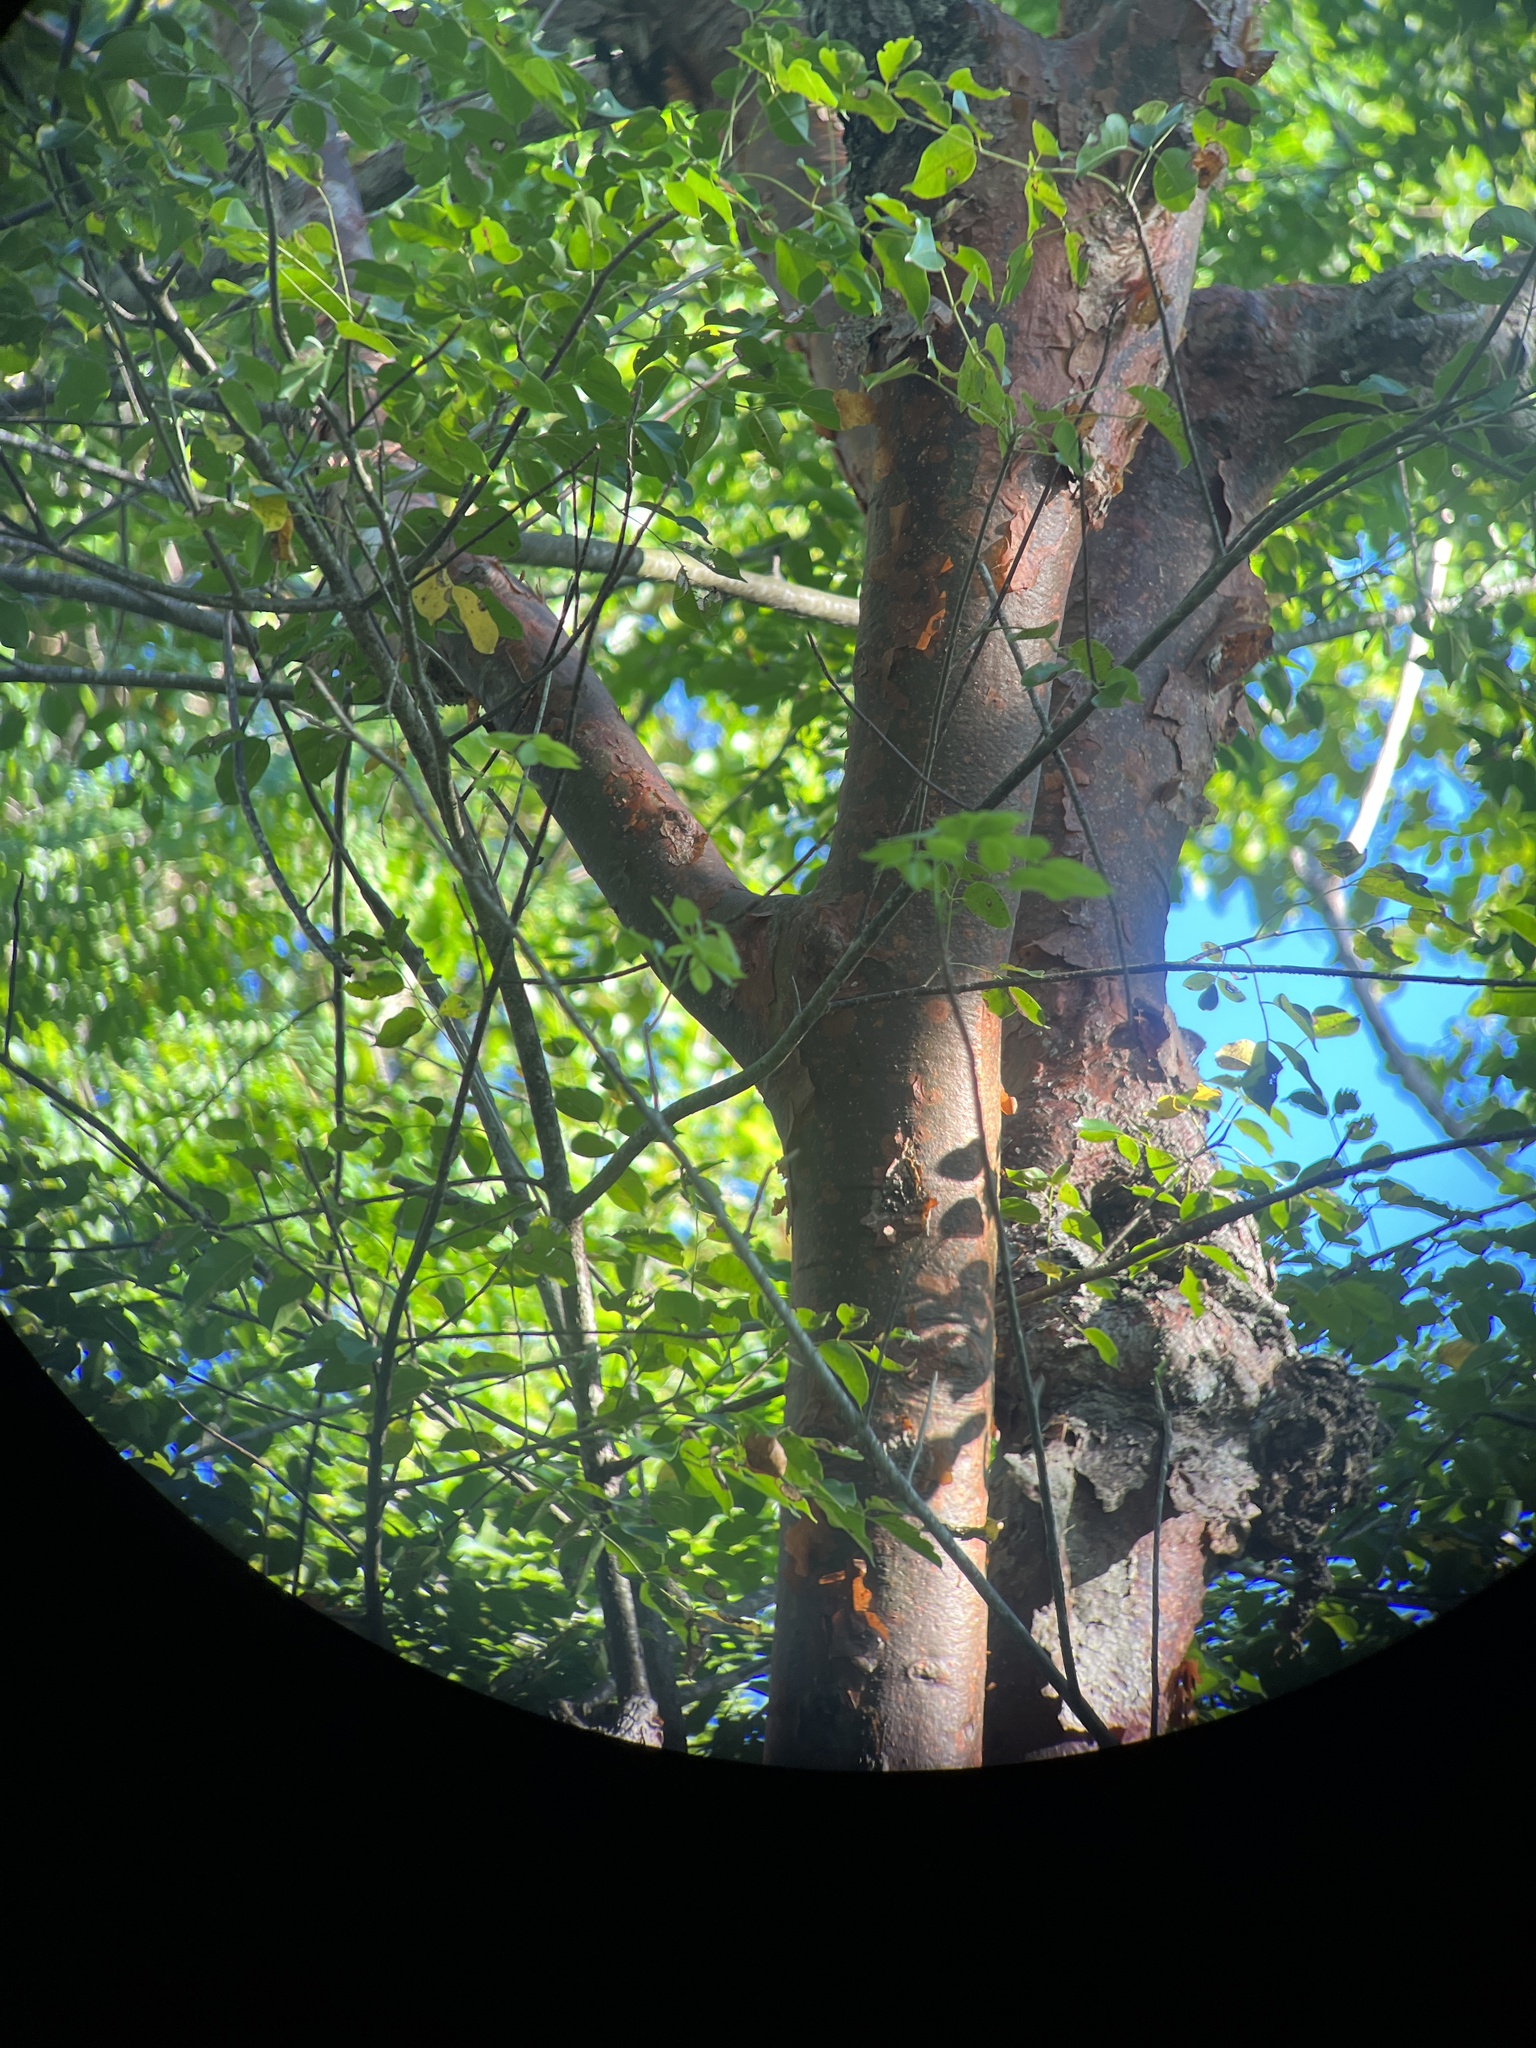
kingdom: Plantae
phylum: Tracheophyta
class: Magnoliopsida
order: Sapindales
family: Burseraceae
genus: Bursera
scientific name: Bursera simaruba
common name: Turpentine tree
